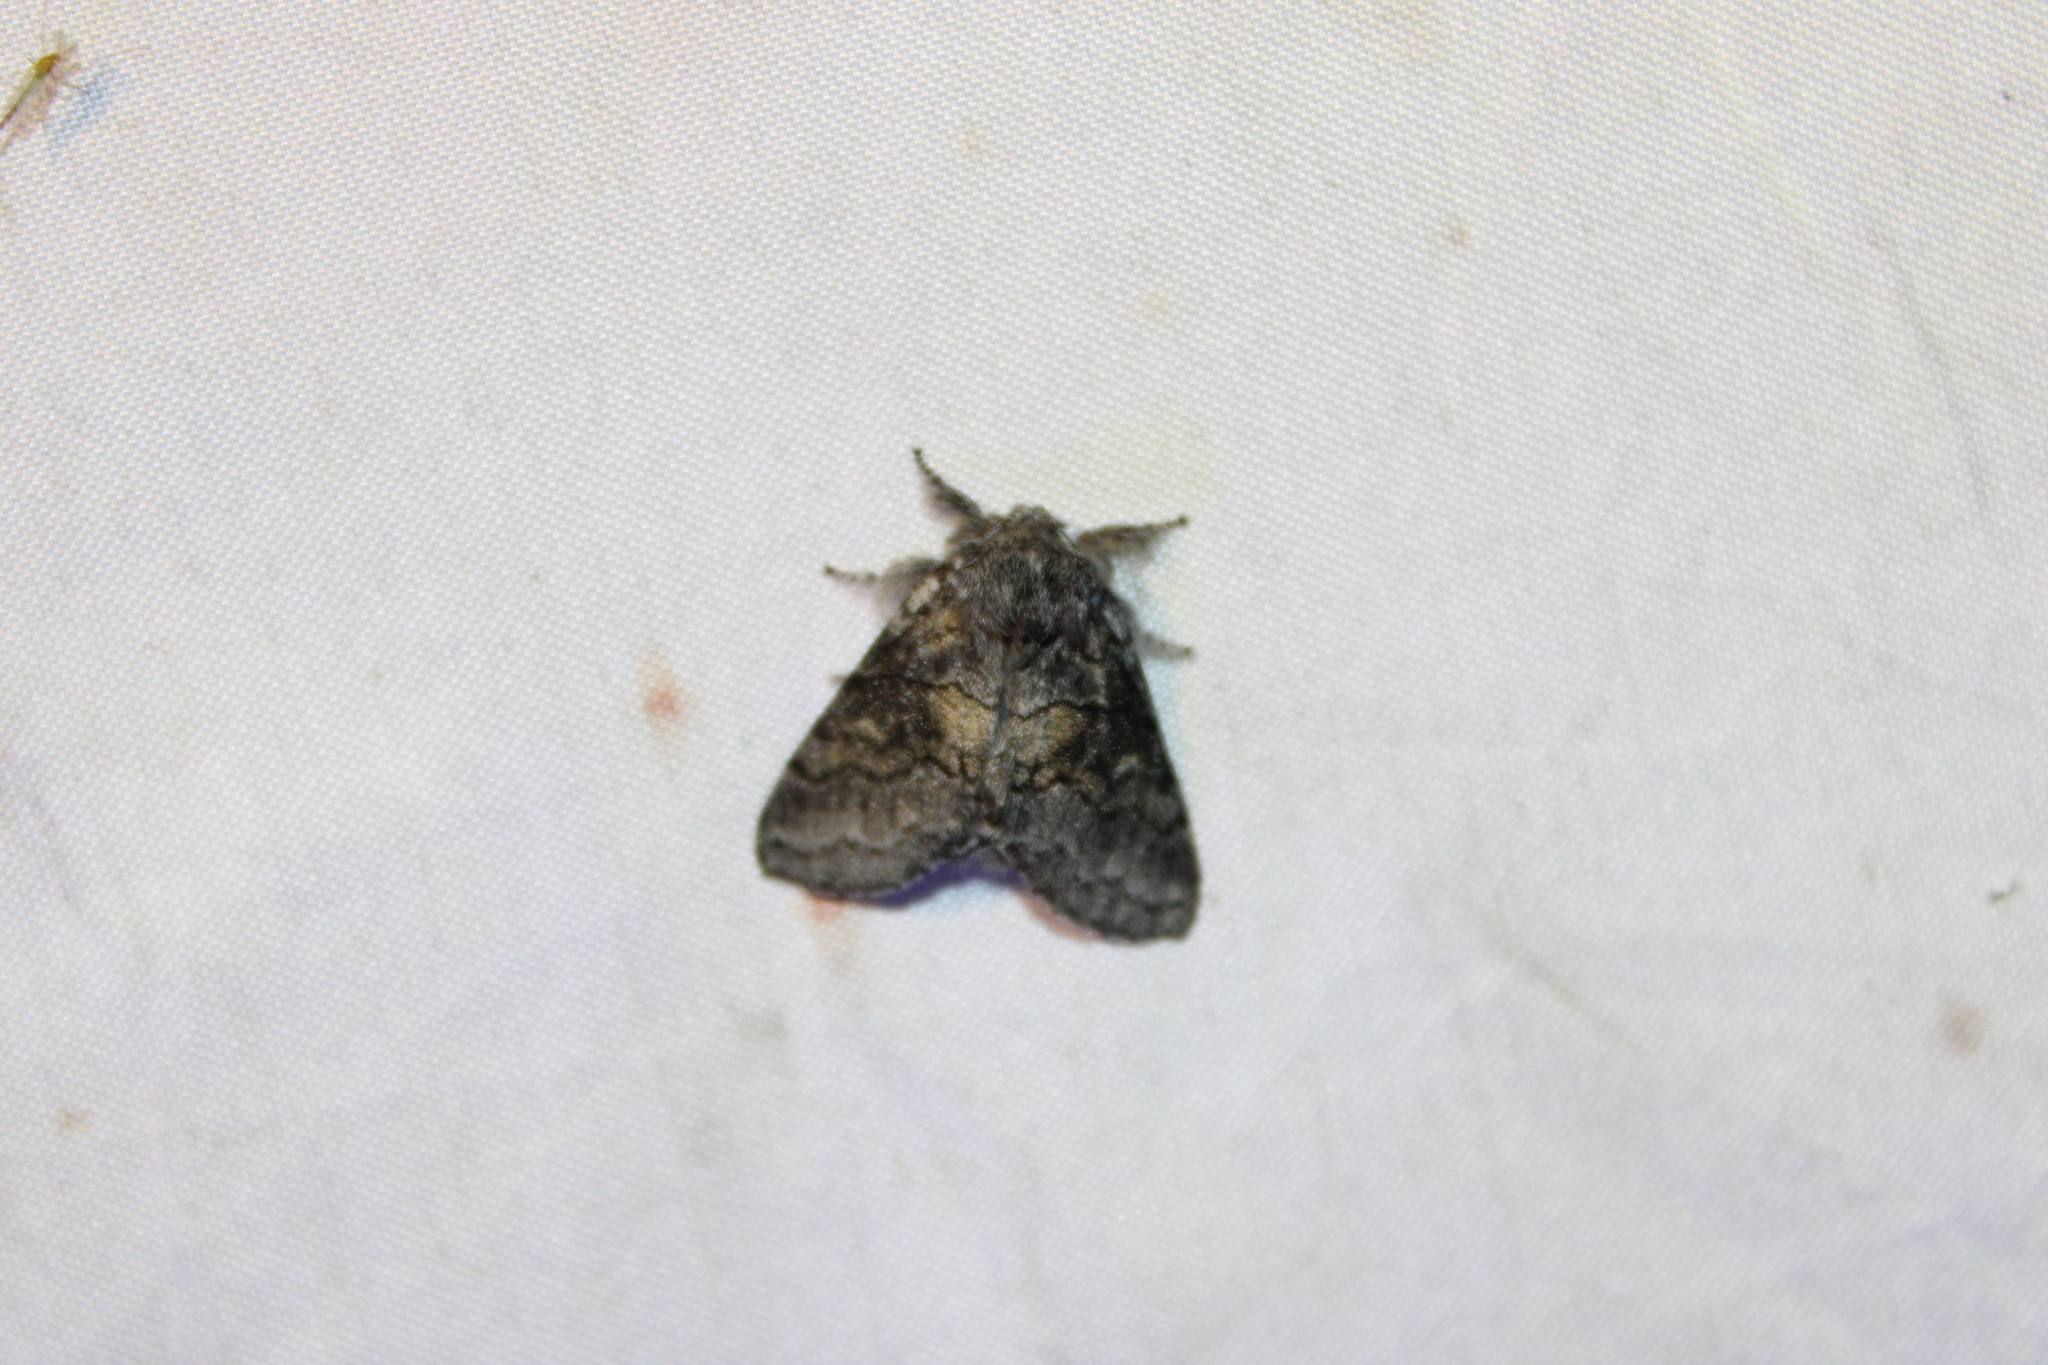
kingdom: Animalia
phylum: Arthropoda
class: Insecta
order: Lepidoptera
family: Notodontidae
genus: Gluphisia
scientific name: Gluphisia septentrionis
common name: Common gluphisia
